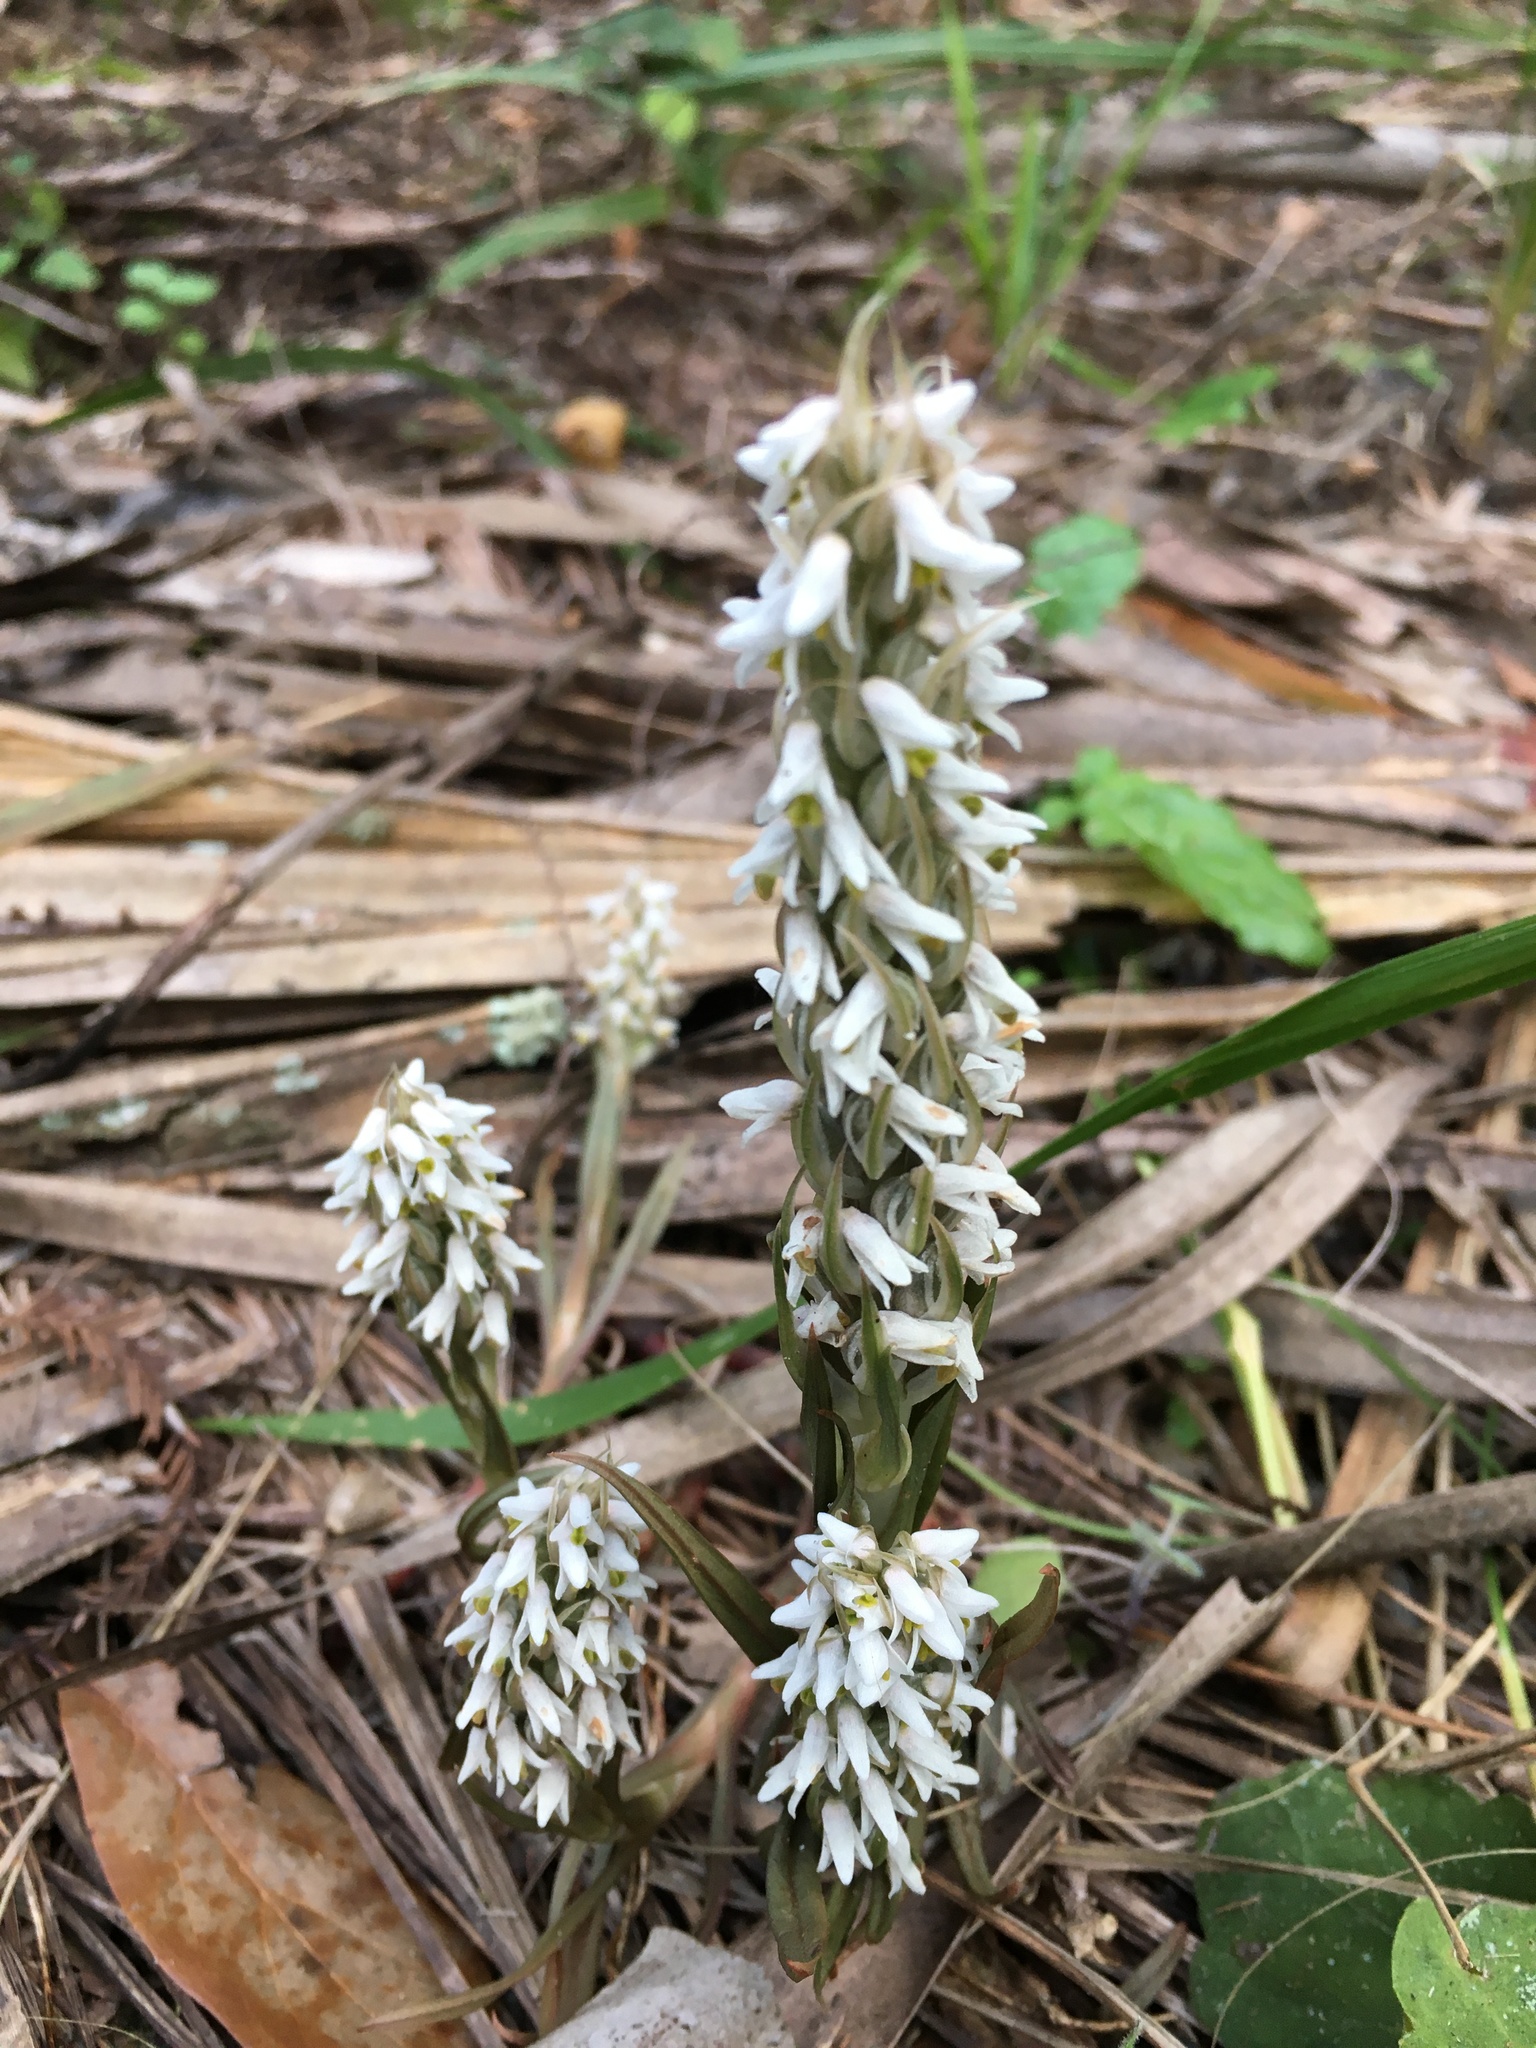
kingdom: Plantae
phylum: Tracheophyta
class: Liliopsida
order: Asparagales
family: Orchidaceae
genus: Zeuxine
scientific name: Zeuxine strateumatica
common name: Soldier's orchid
